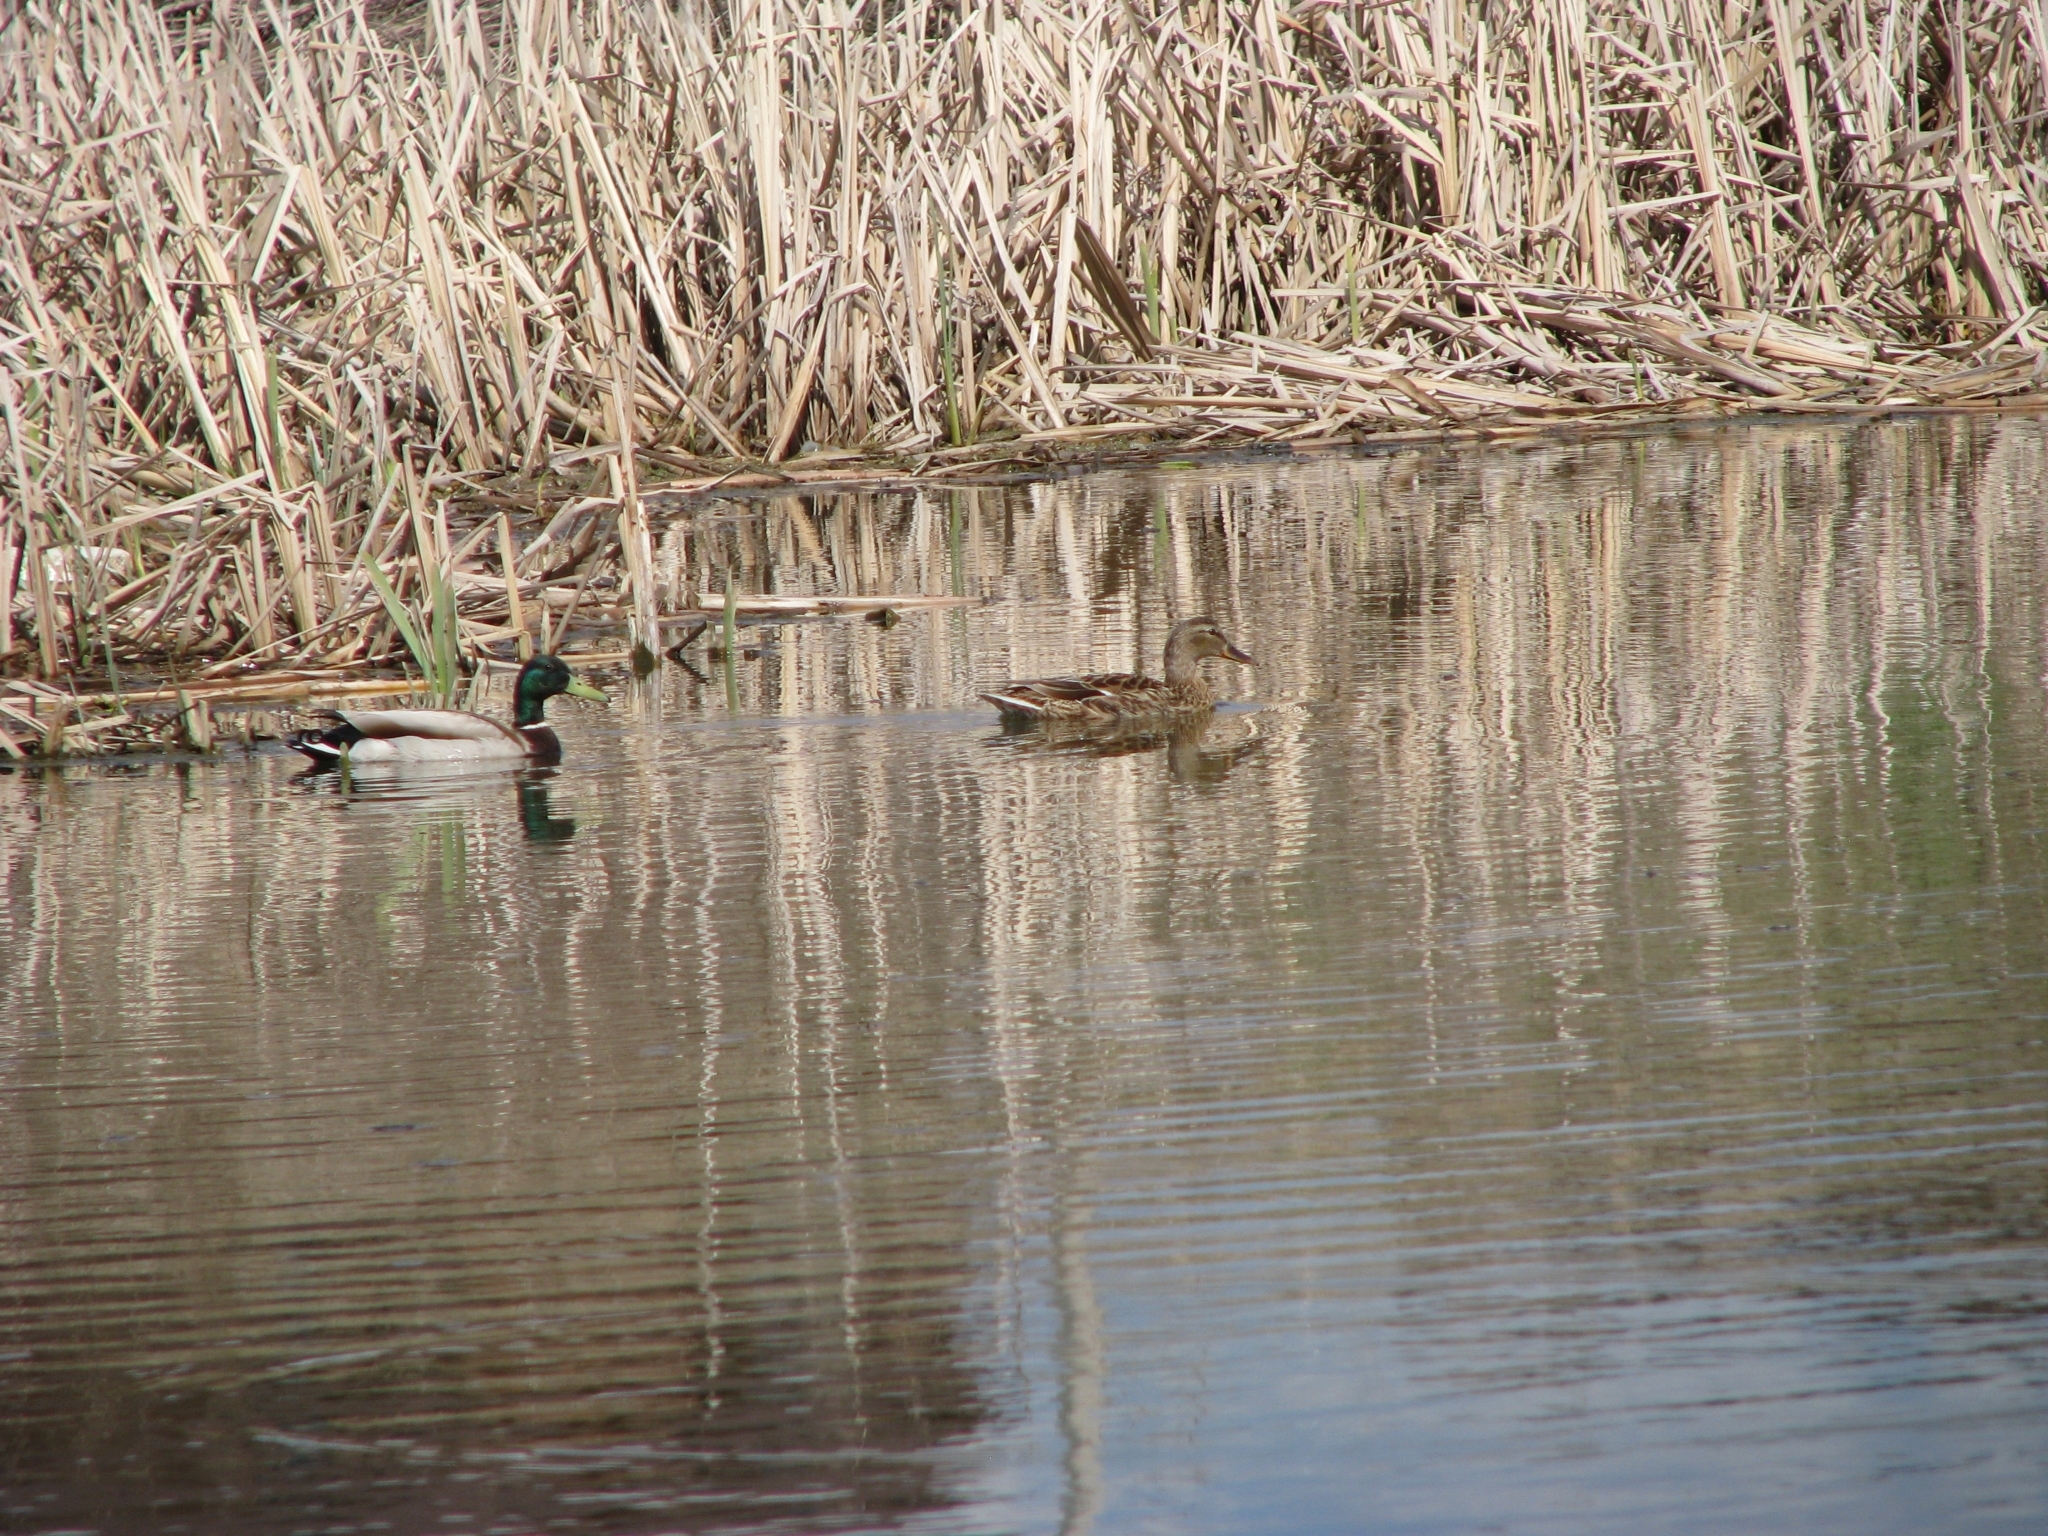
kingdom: Animalia
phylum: Chordata
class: Aves
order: Anseriformes
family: Anatidae
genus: Anas
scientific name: Anas platyrhynchos
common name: Mallard
